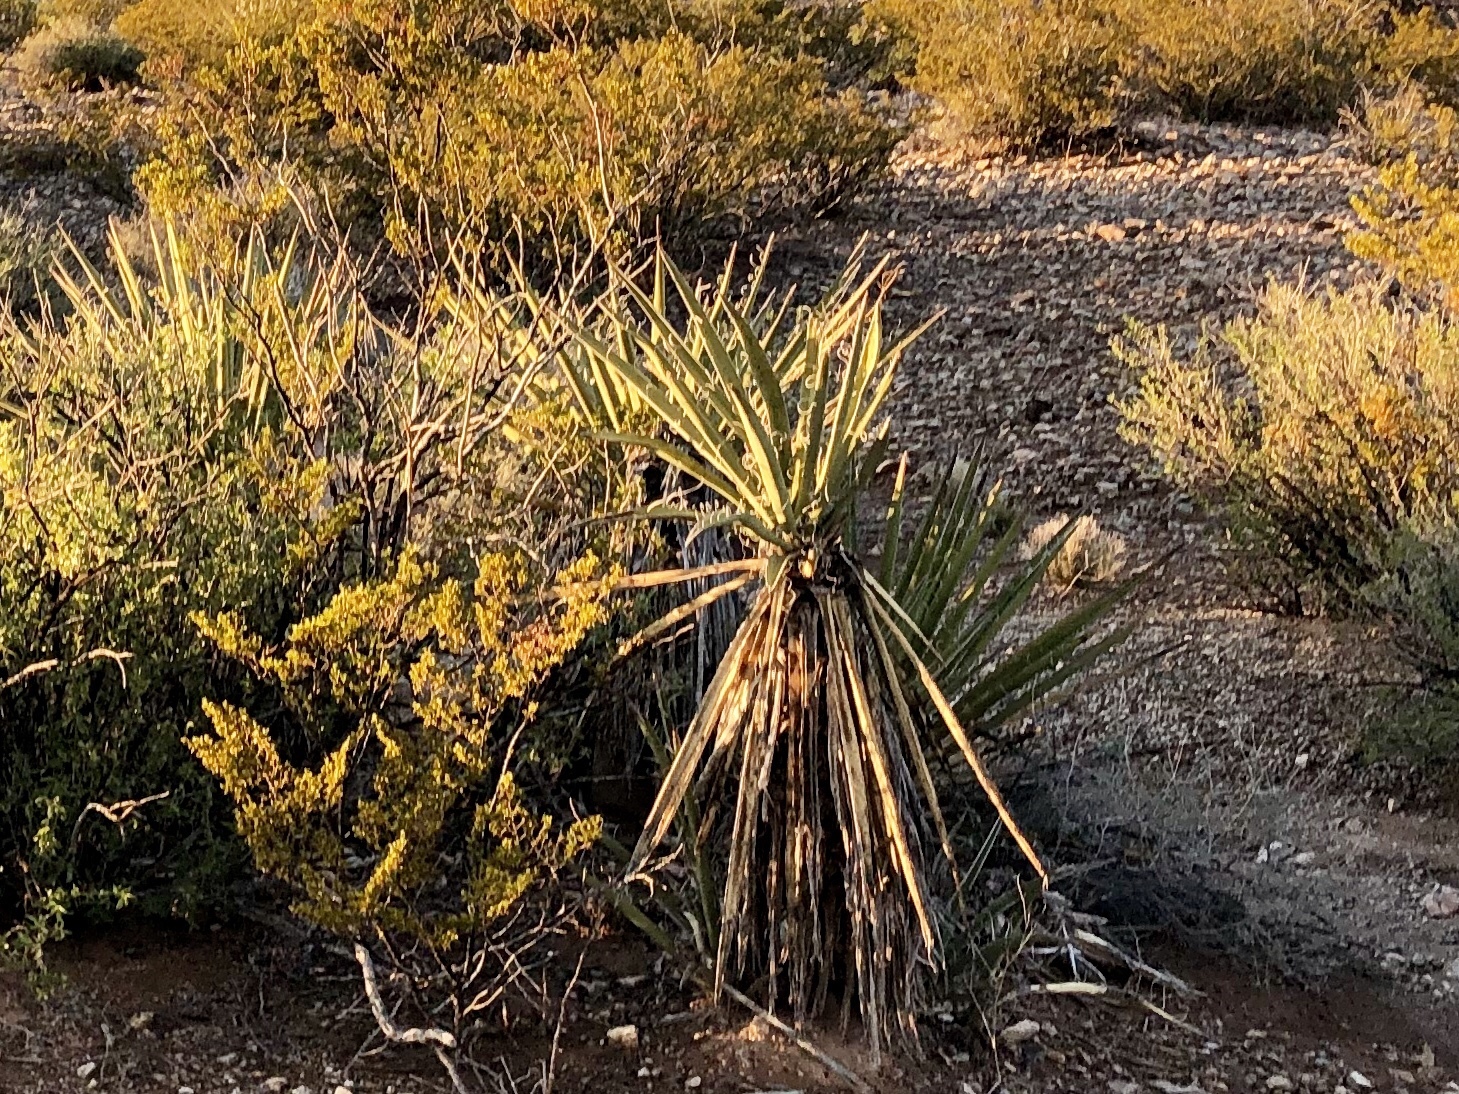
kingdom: Plantae
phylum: Tracheophyta
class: Liliopsida
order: Asparagales
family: Asparagaceae
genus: Yucca
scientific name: Yucca baccata
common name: Banana yucca
